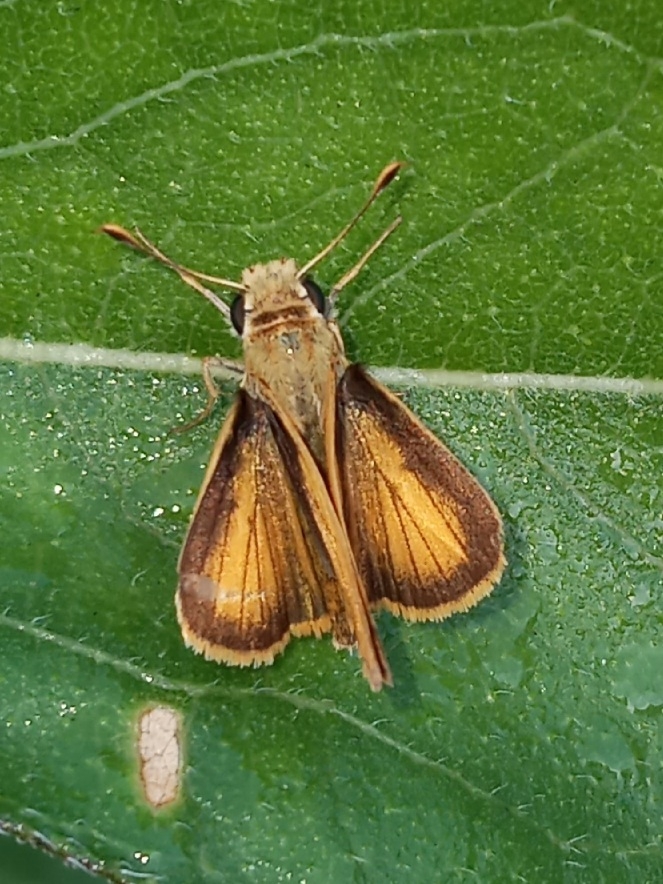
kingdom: Animalia
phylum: Arthropoda
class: Insecta
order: Lepidoptera
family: Hesperiidae
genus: Hylephila
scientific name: Hylephila phyleus
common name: Fiery skipper
